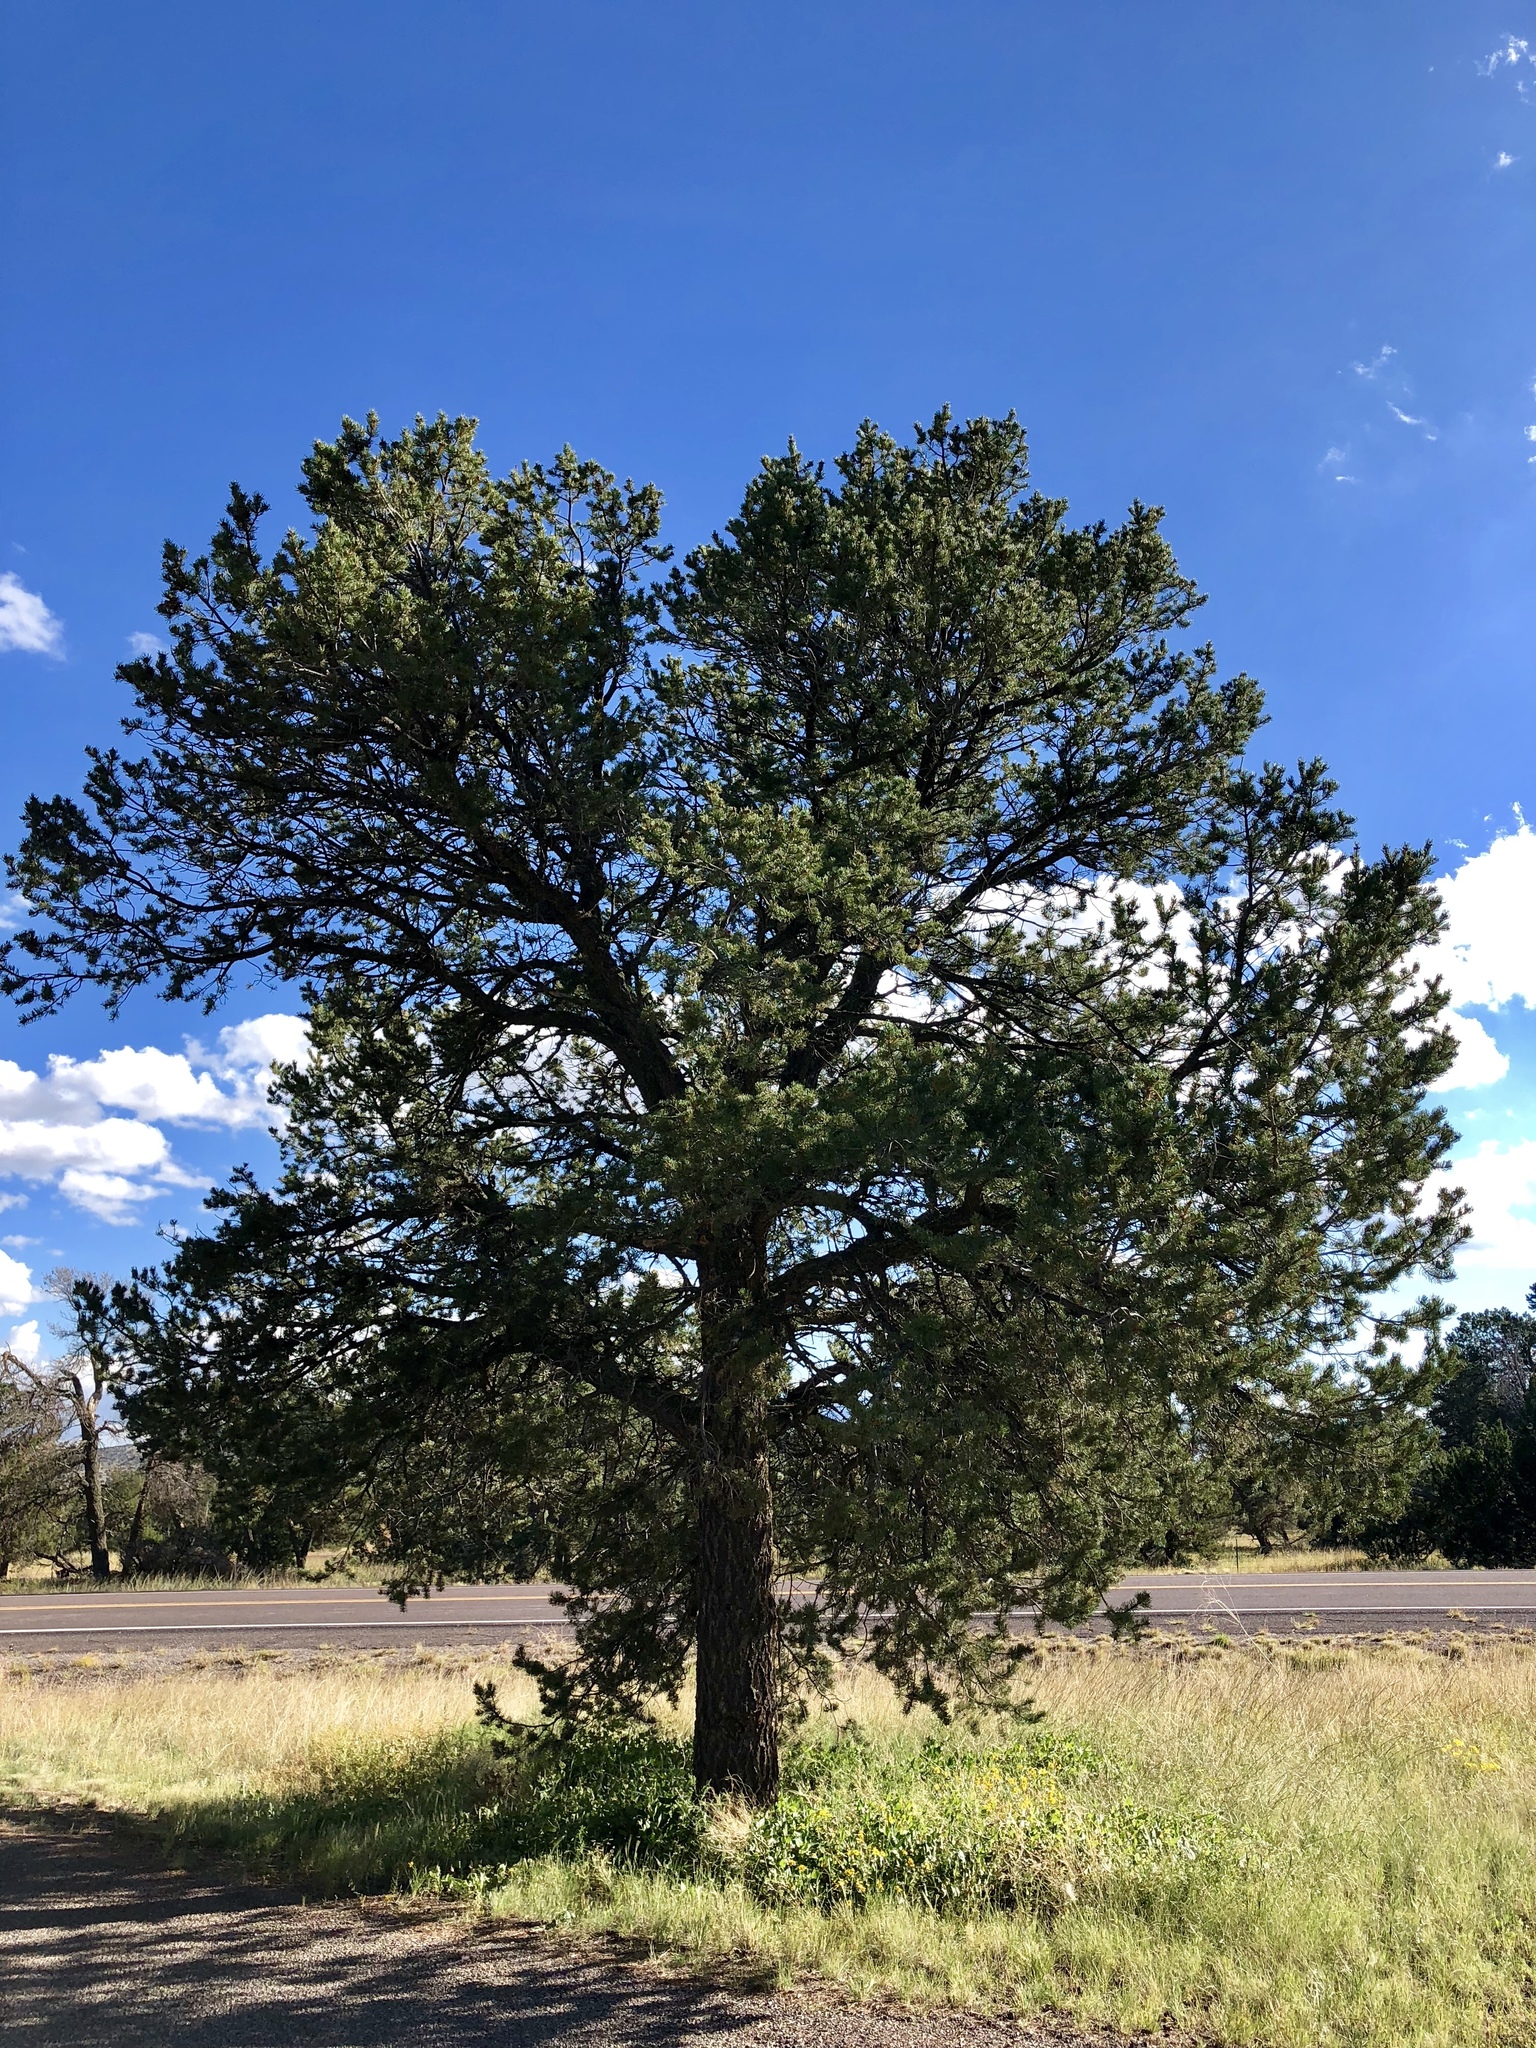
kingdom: Plantae
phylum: Tracheophyta
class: Pinopsida
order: Pinales
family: Pinaceae
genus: Pinus
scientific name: Pinus edulis
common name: Colorado pinyon
